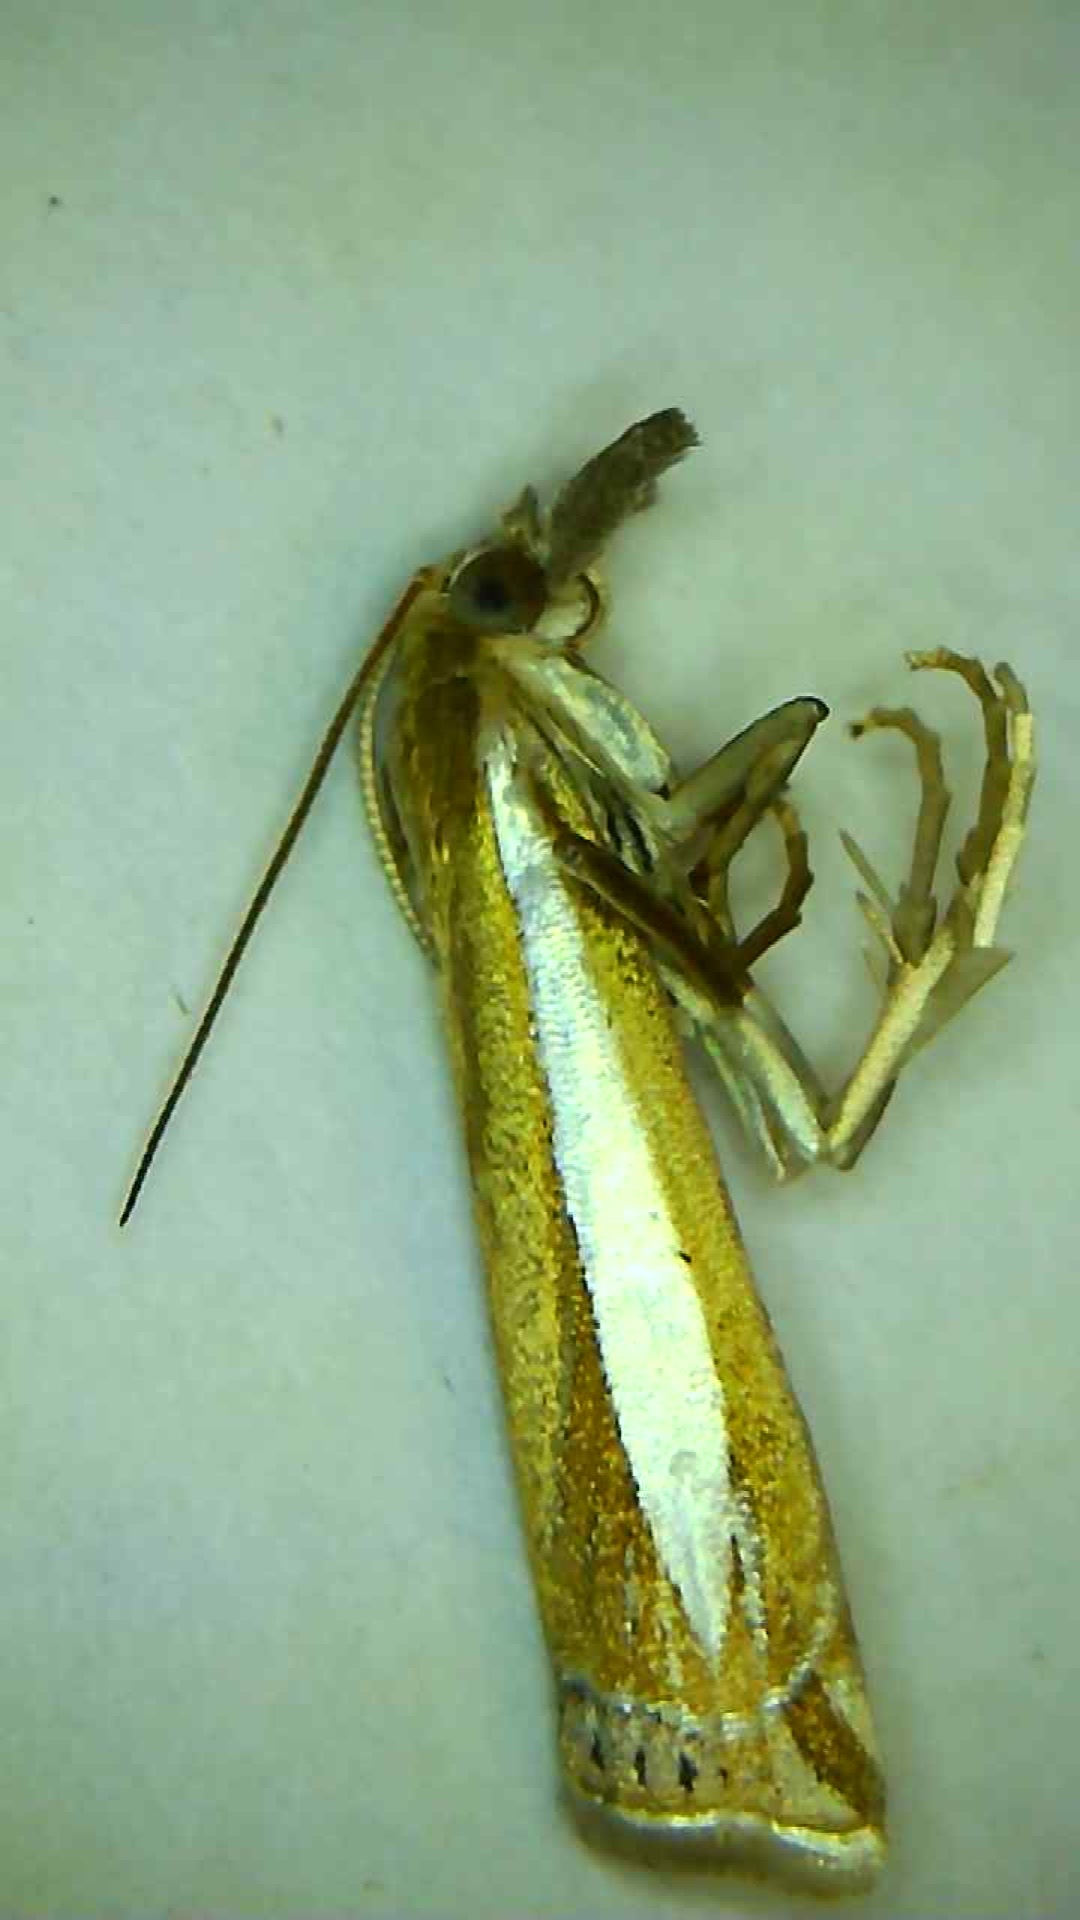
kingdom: Animalia
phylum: Arthropoda
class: Insecta
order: Lepidoptera
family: Crambidae
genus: Crambus
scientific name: Crambus praefectellus
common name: Common grass-veneer
